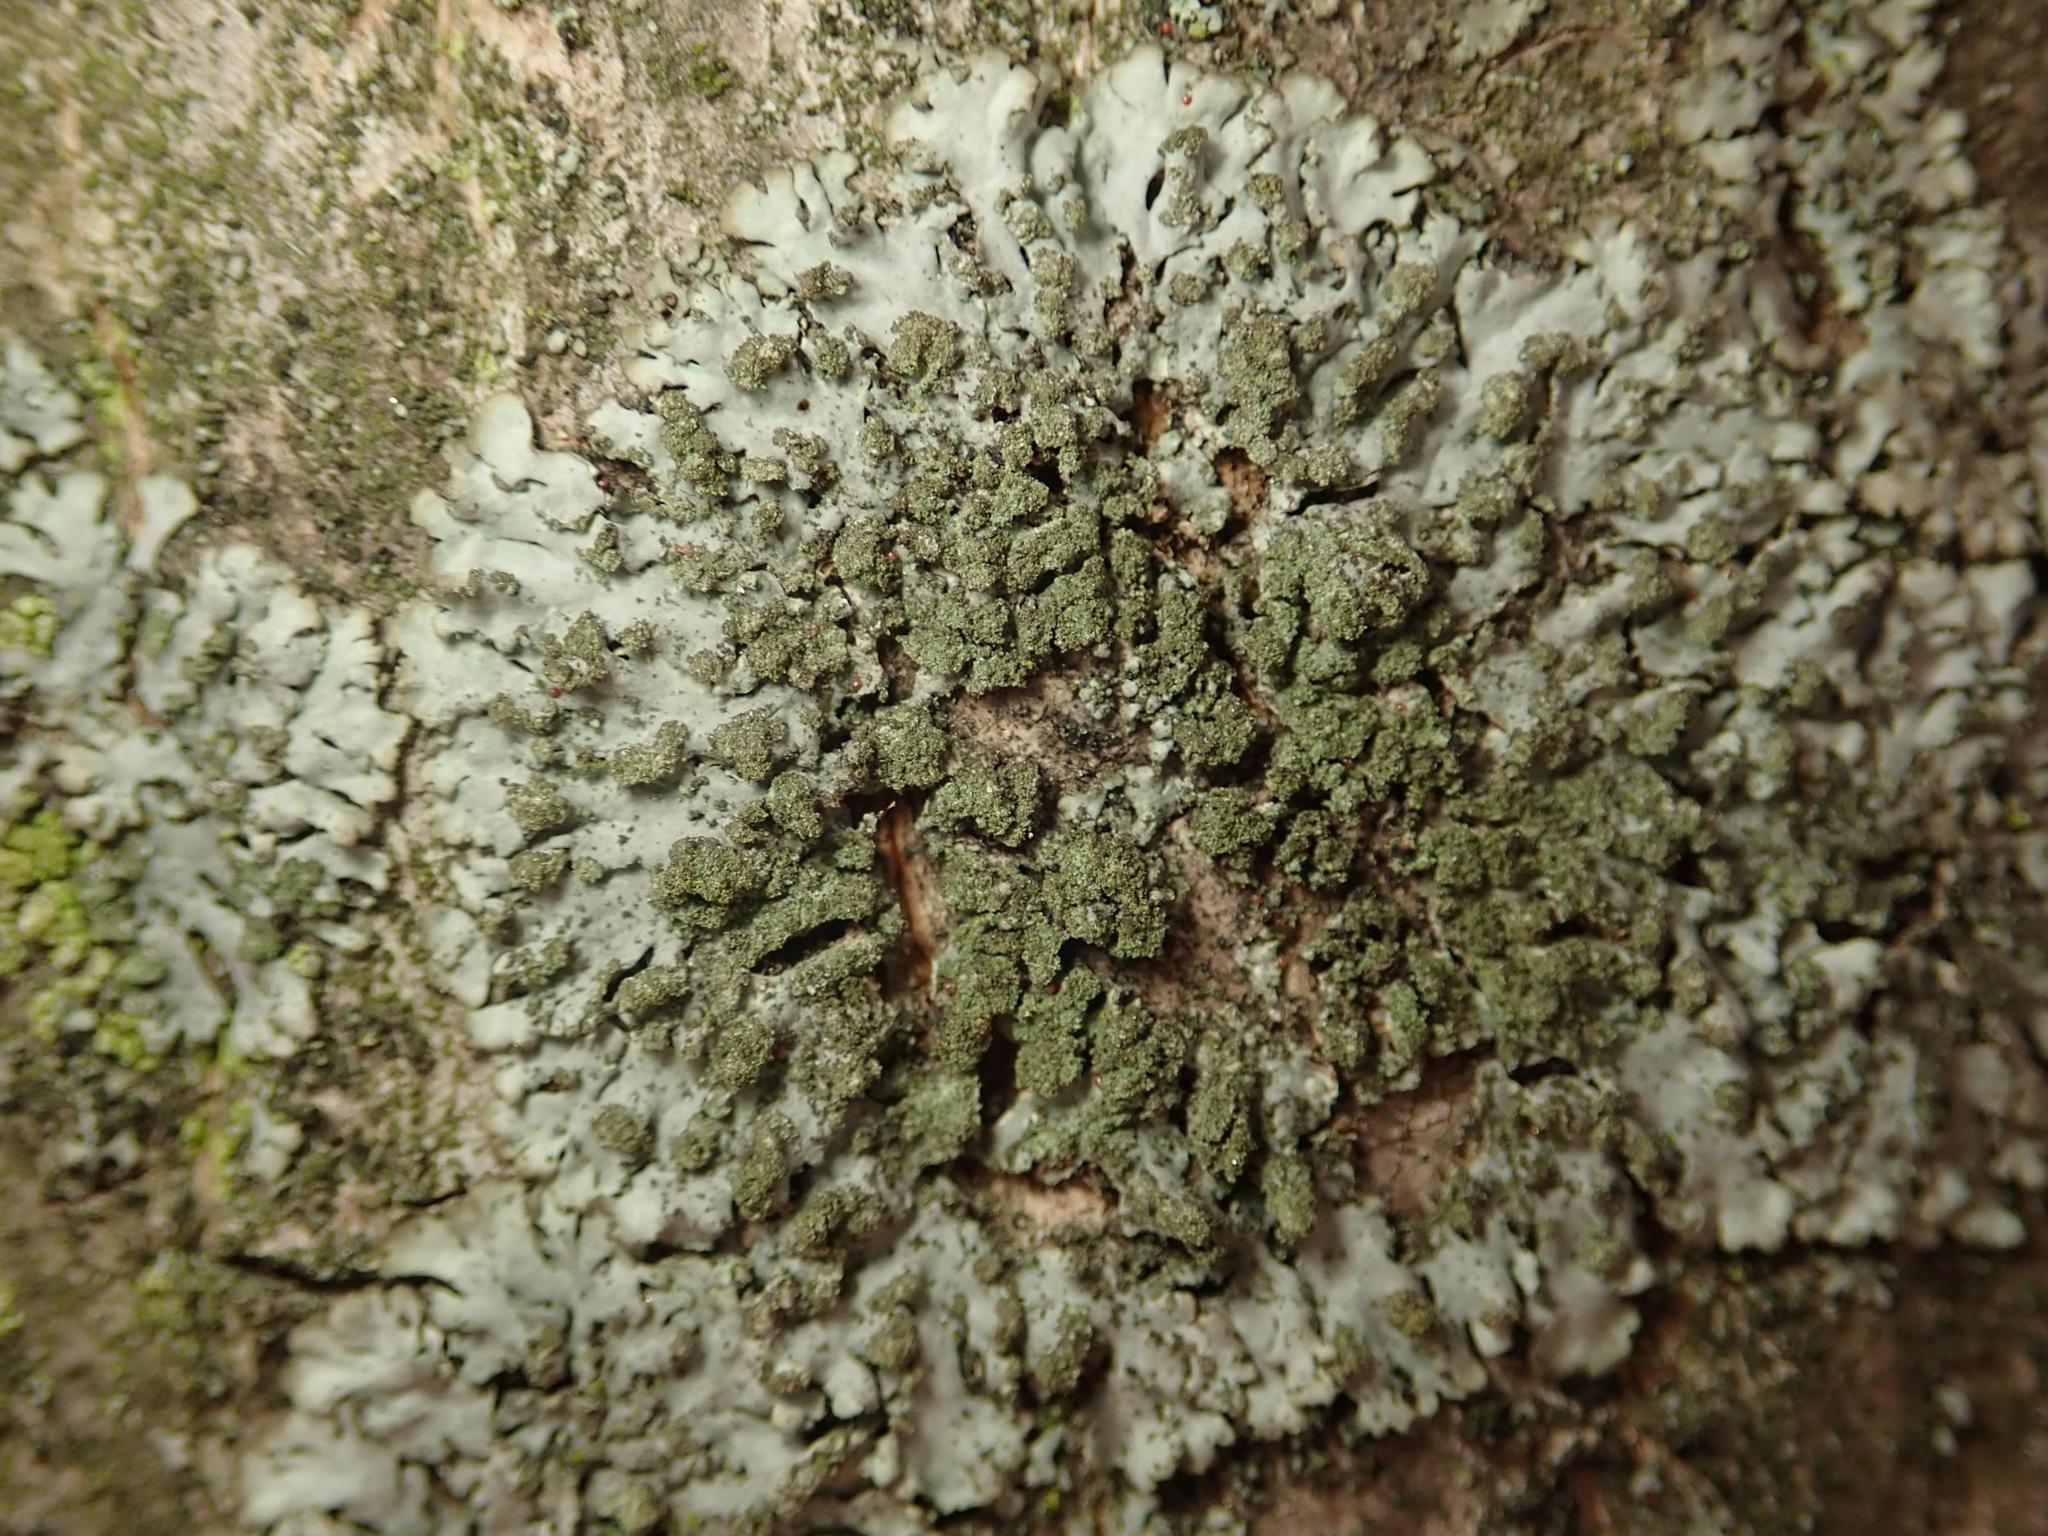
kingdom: Fungi
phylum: Ascomycota
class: Lecanoromycetes
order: Caliciales
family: Physciaceae
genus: Phaeophyscia
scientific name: Phaeophyscia orbicularis
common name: Mealy shadow lichen
